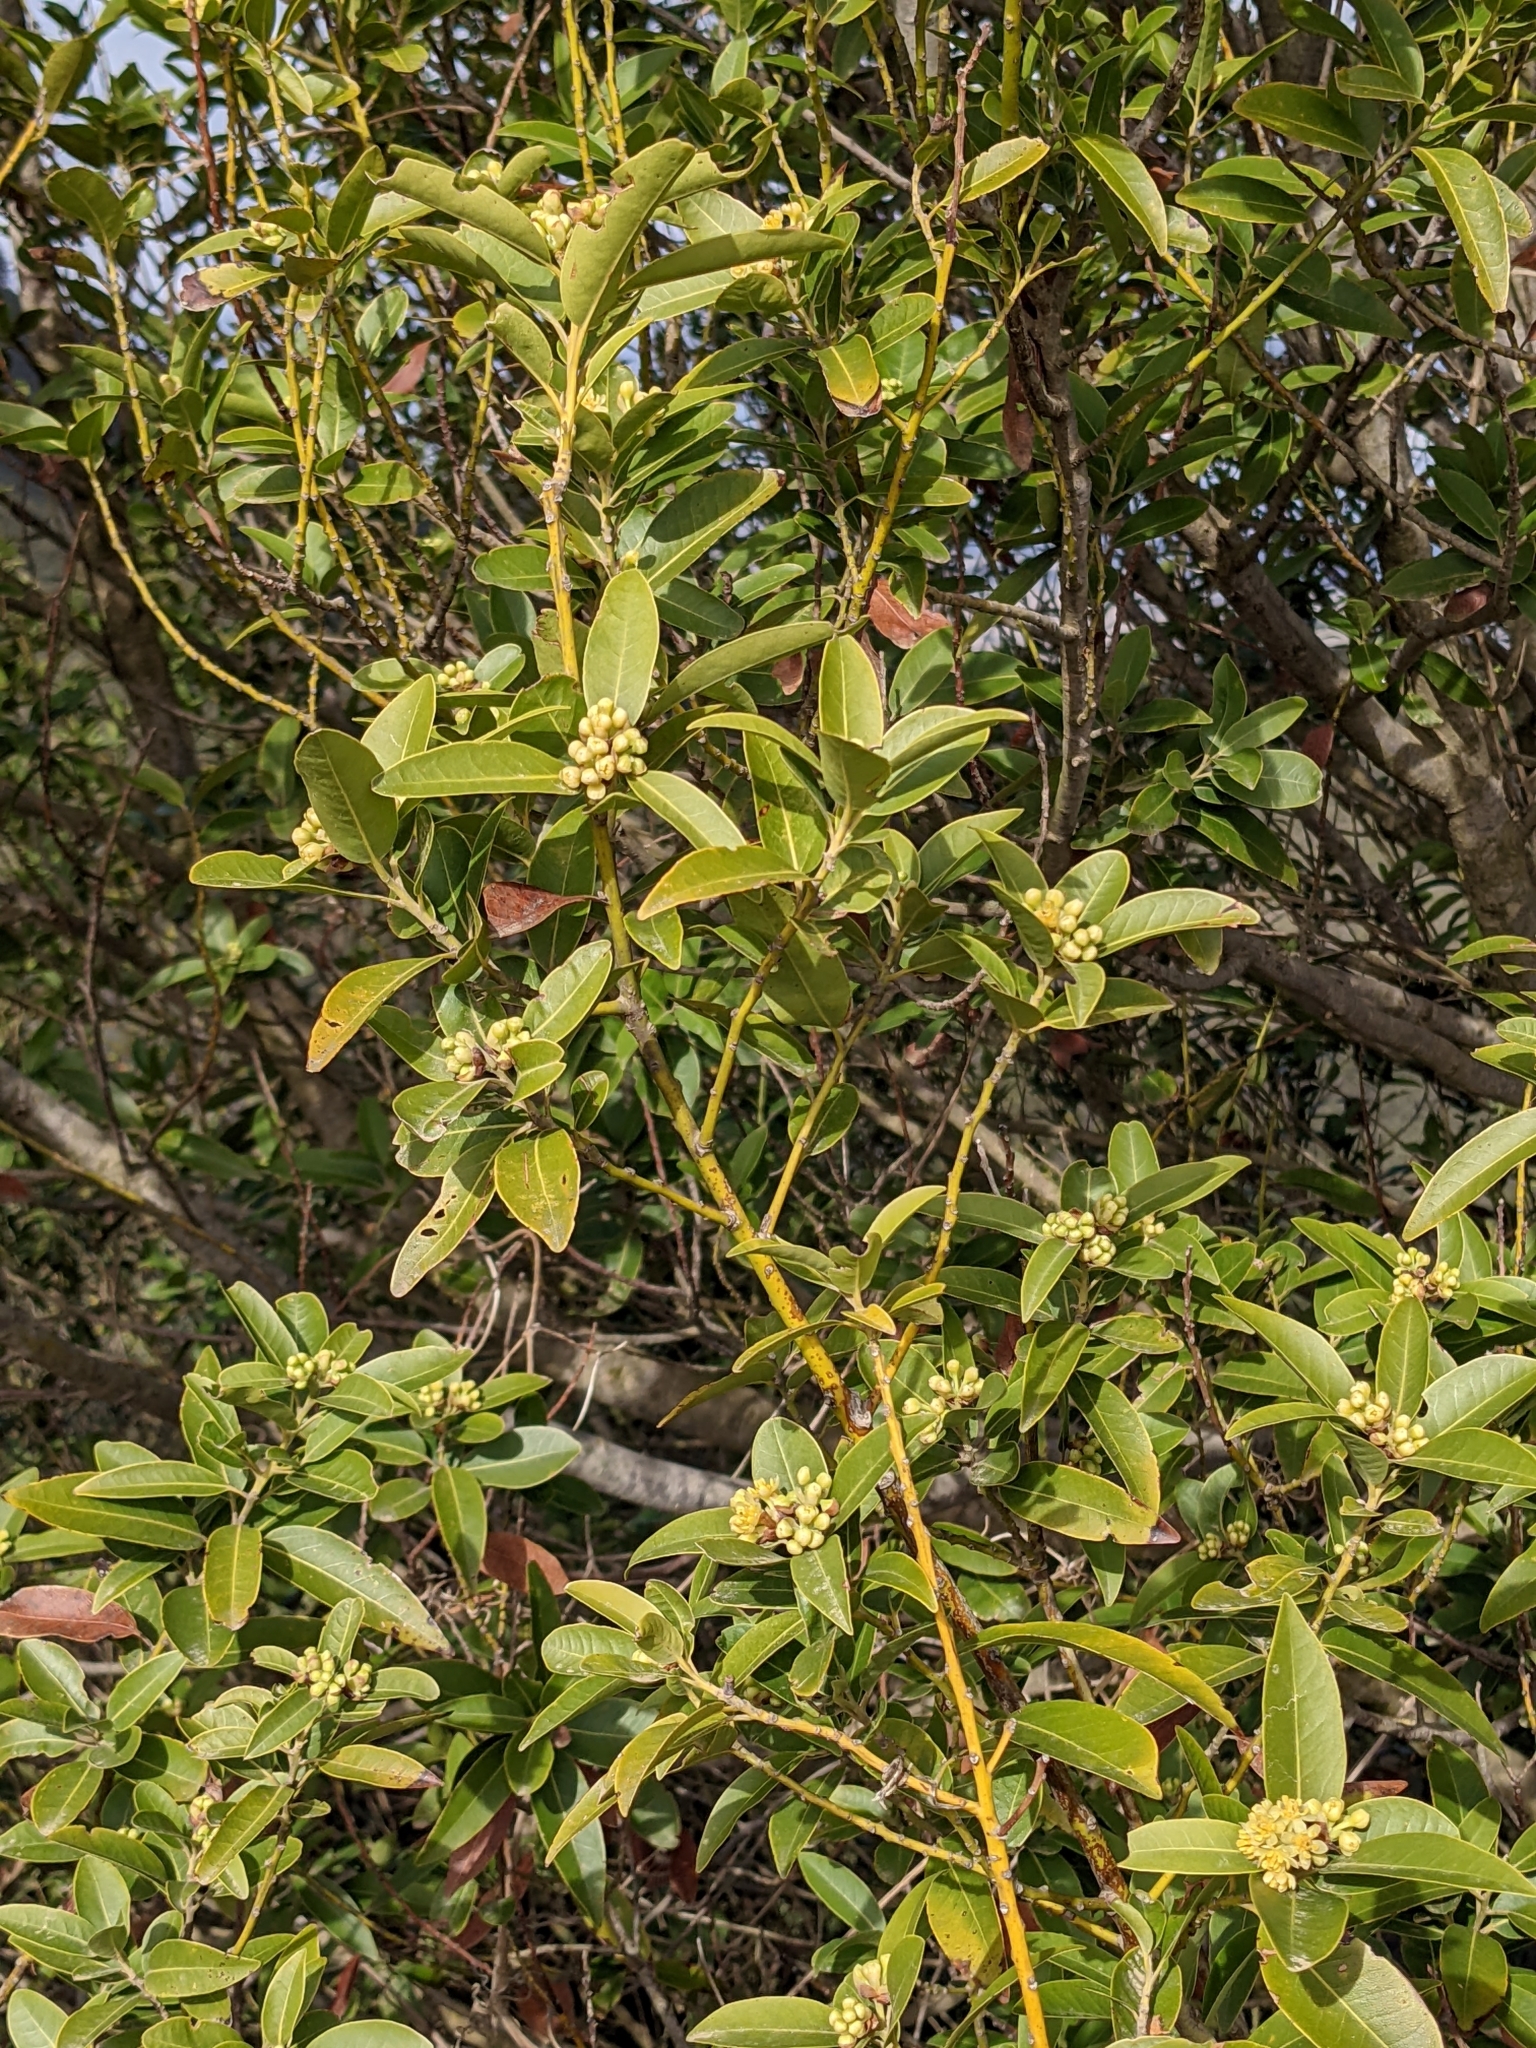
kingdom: Plantae
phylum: Tracheophyta
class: Magnoliopsida
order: Laurales
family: Lauraceae
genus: Umbellularia
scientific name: Umbellularia californica
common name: California bay
